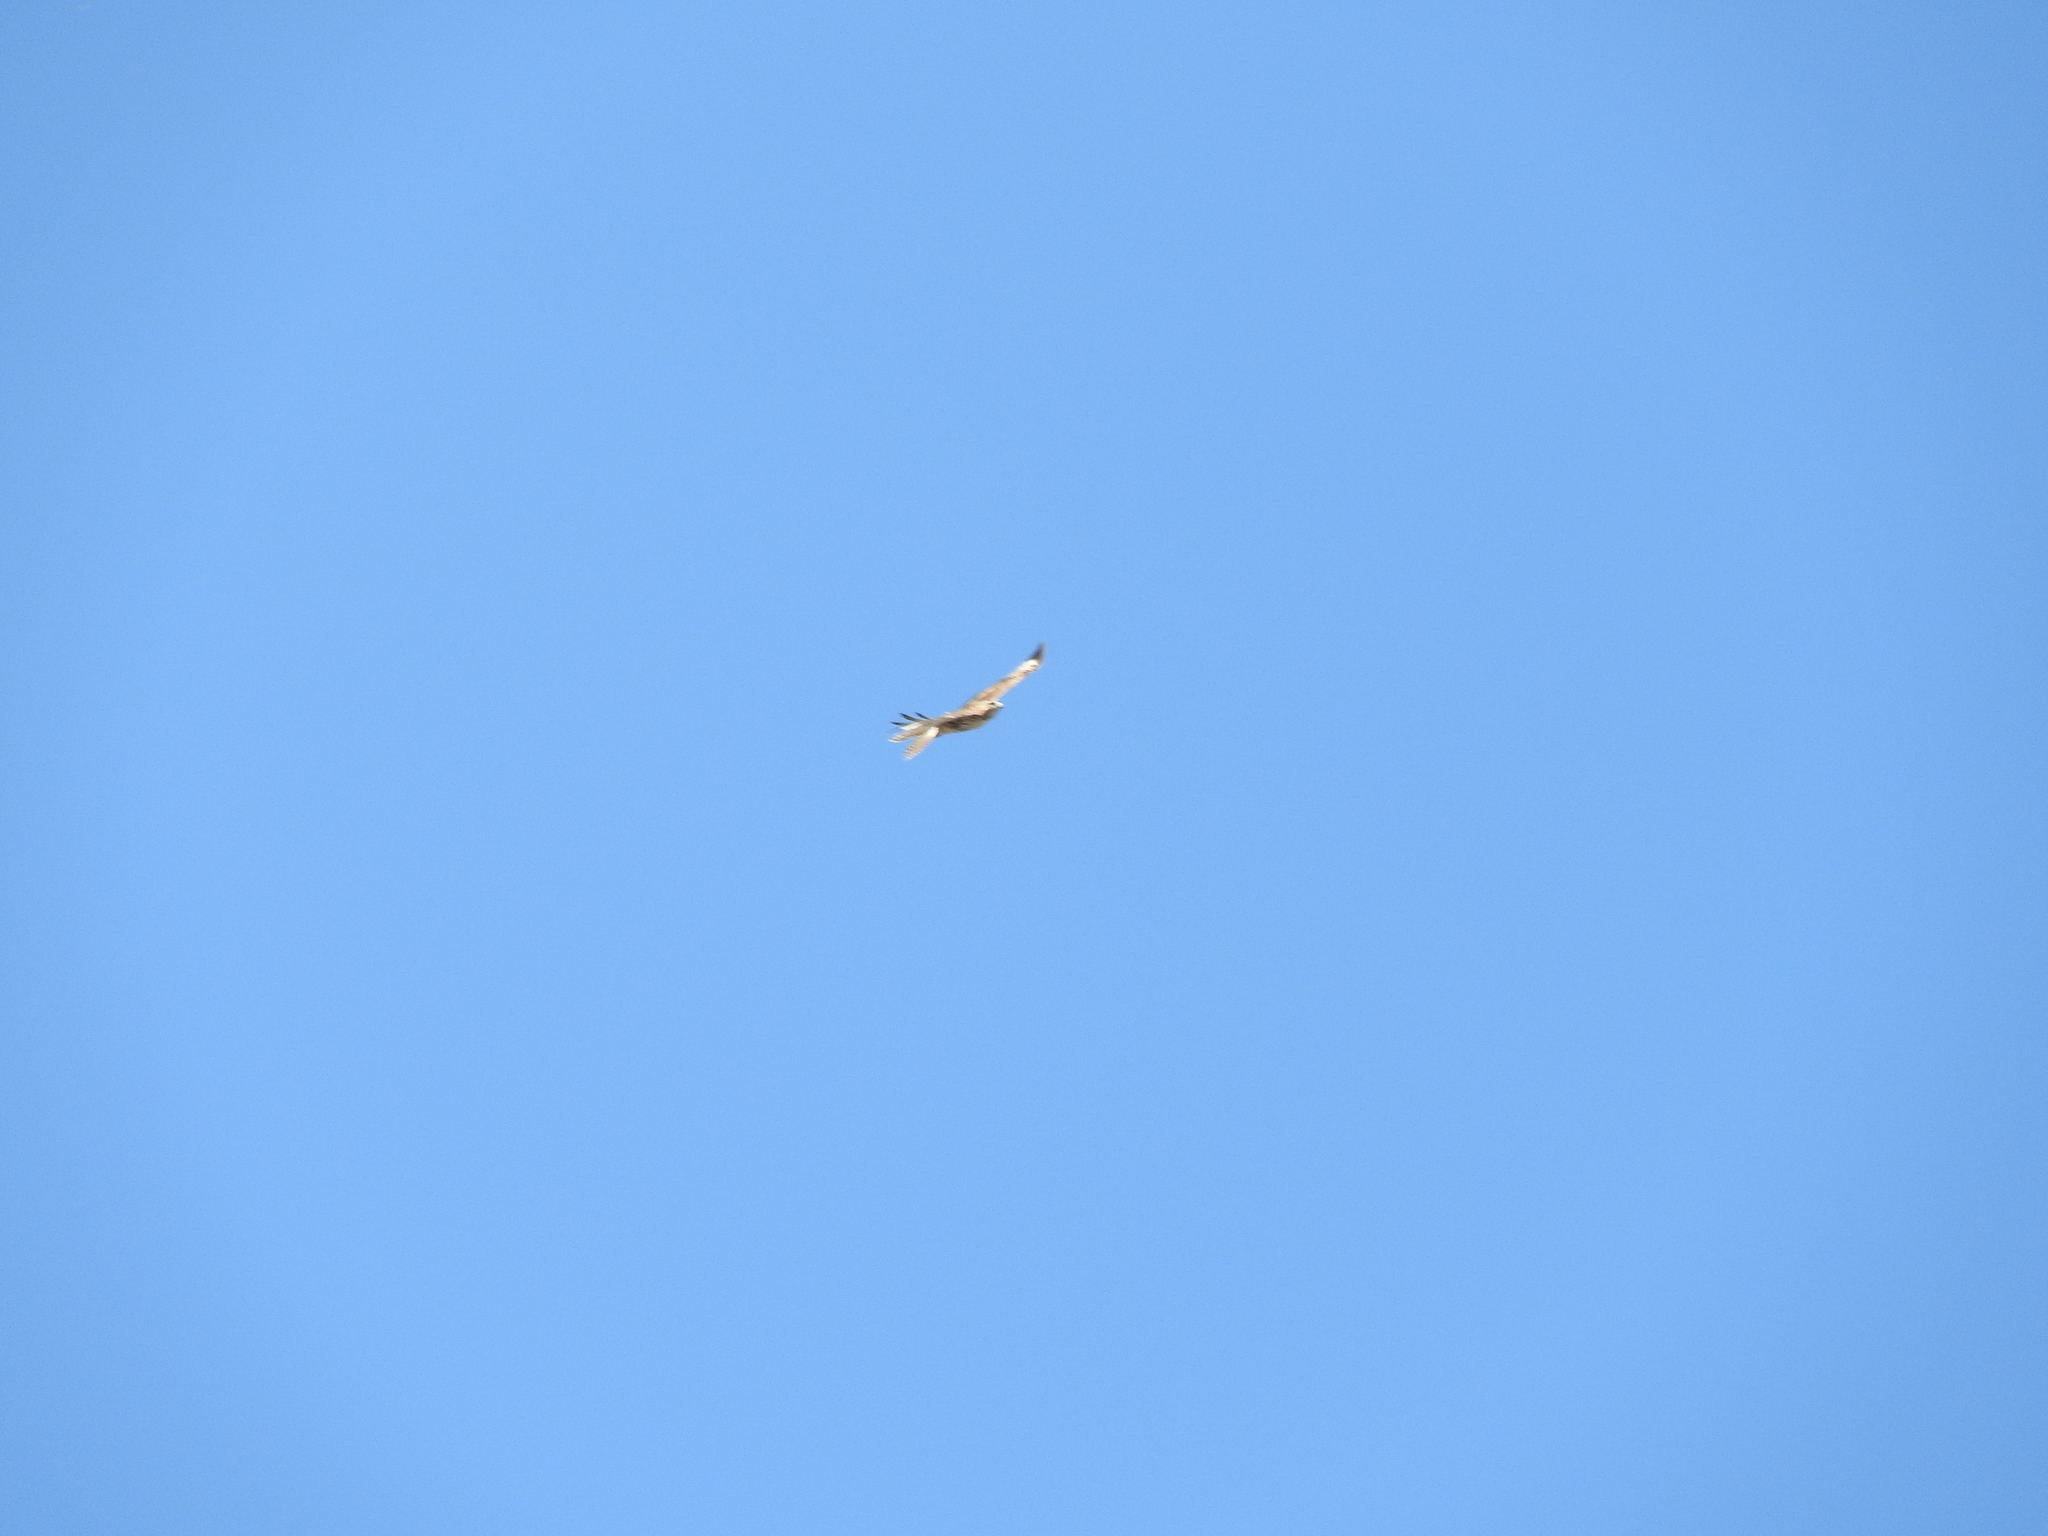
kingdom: Animalia
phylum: Chordata
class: Aves
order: Accipitriformes
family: Accipitridae
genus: Buteo
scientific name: Buteo jamaicensis
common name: Red-tailed hawk
